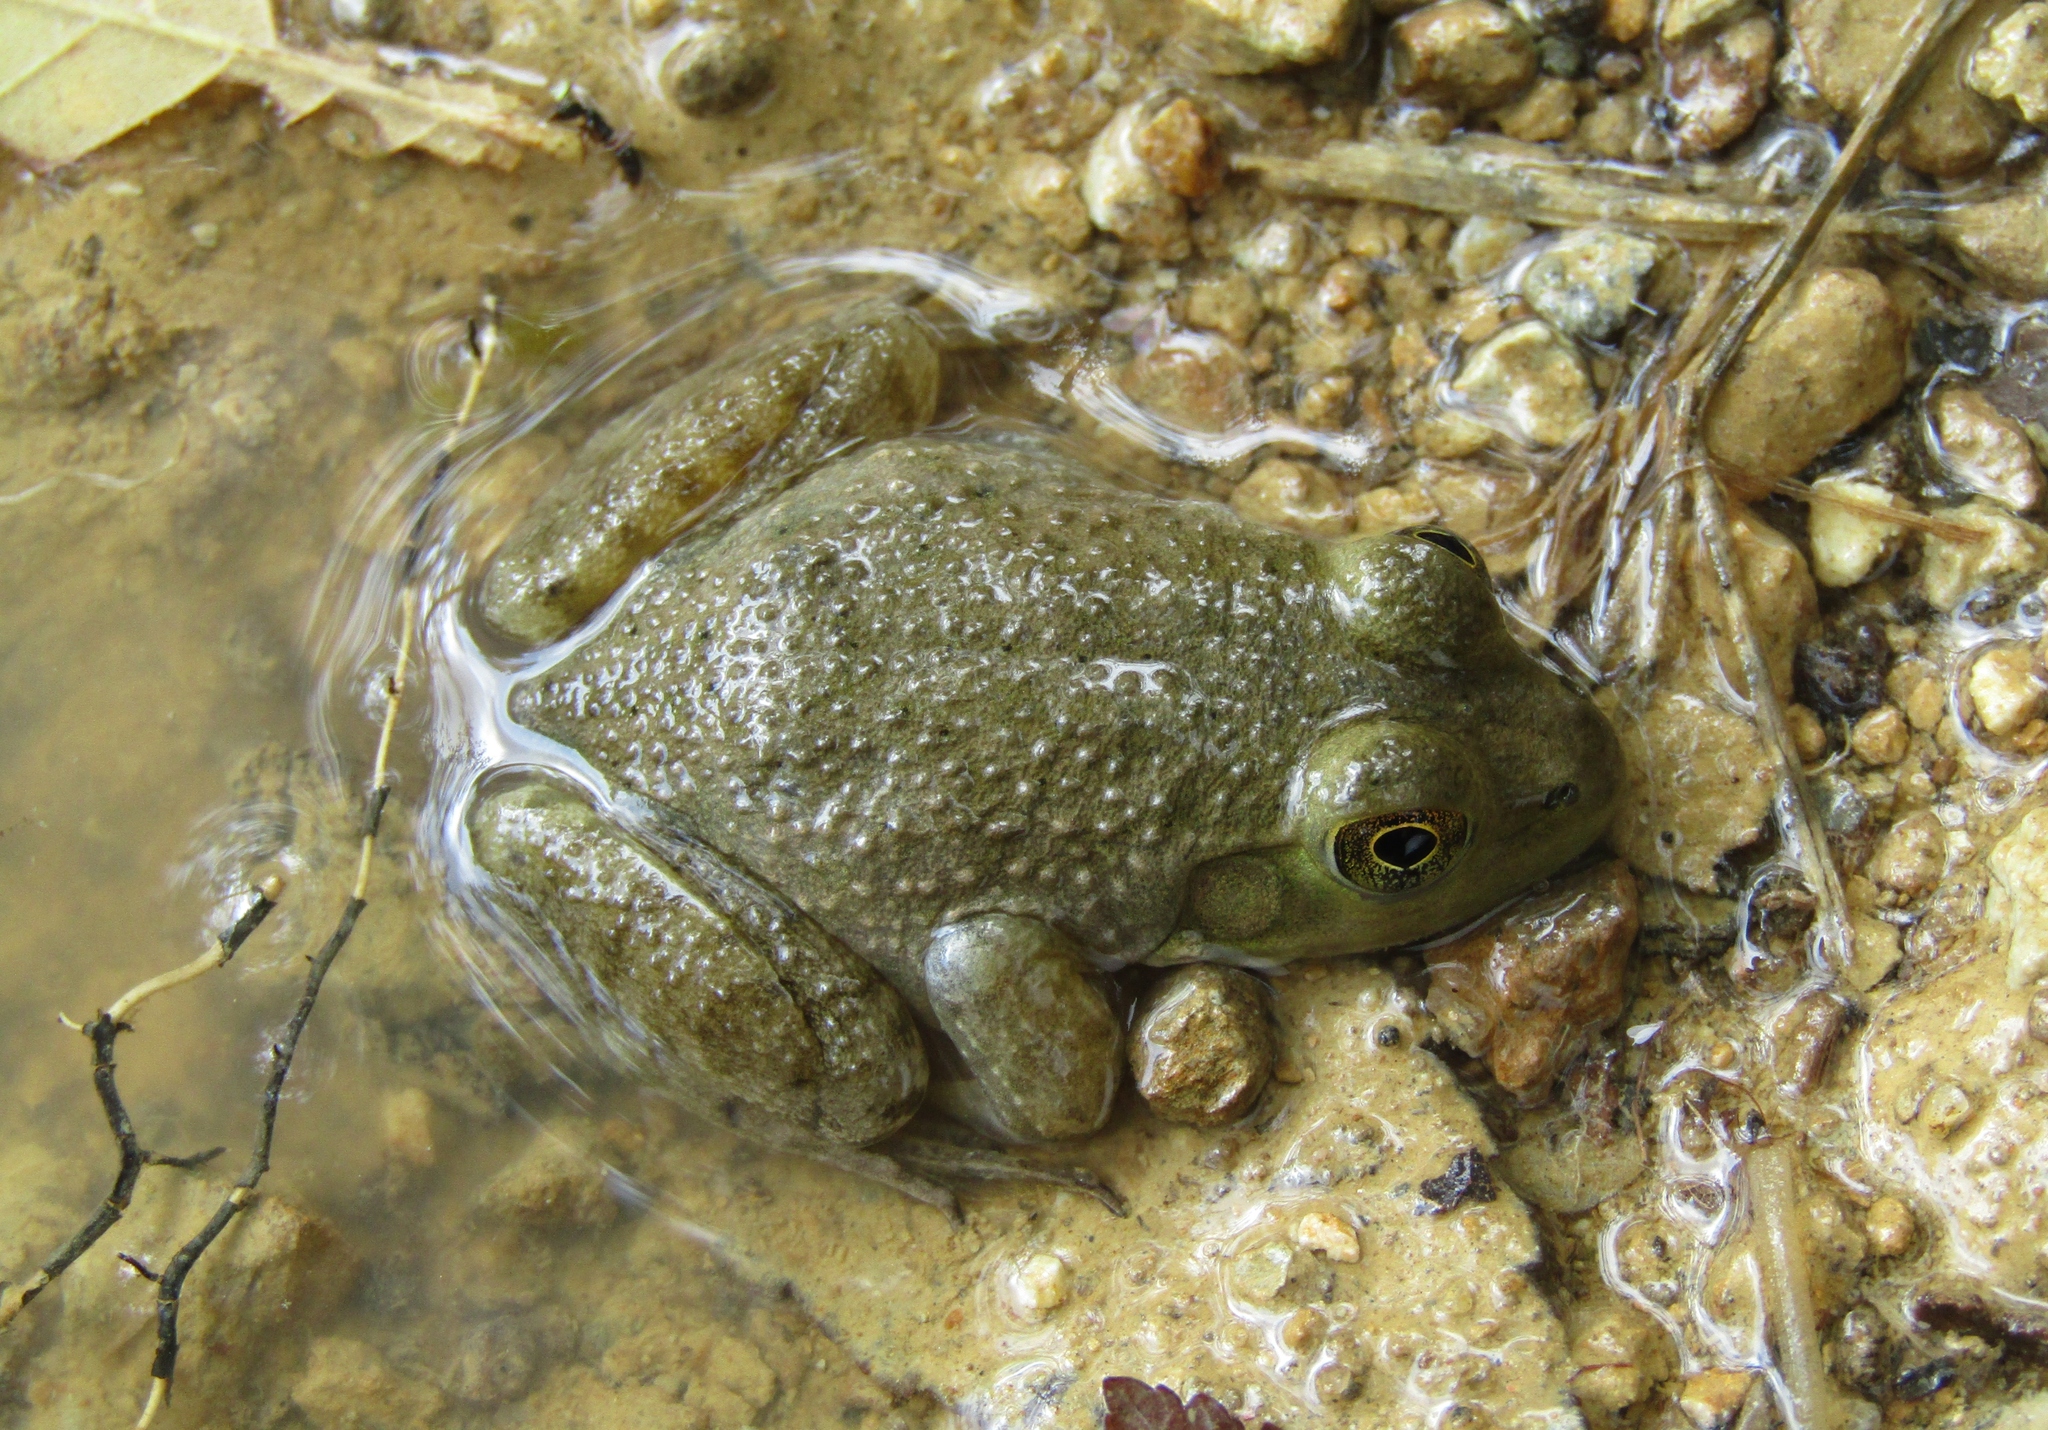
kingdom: Animalia
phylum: Chordata
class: Amphibia
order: Anura
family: Ranidae
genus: Lithobates
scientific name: Lithobates catesbeianus
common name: American bullfrog
